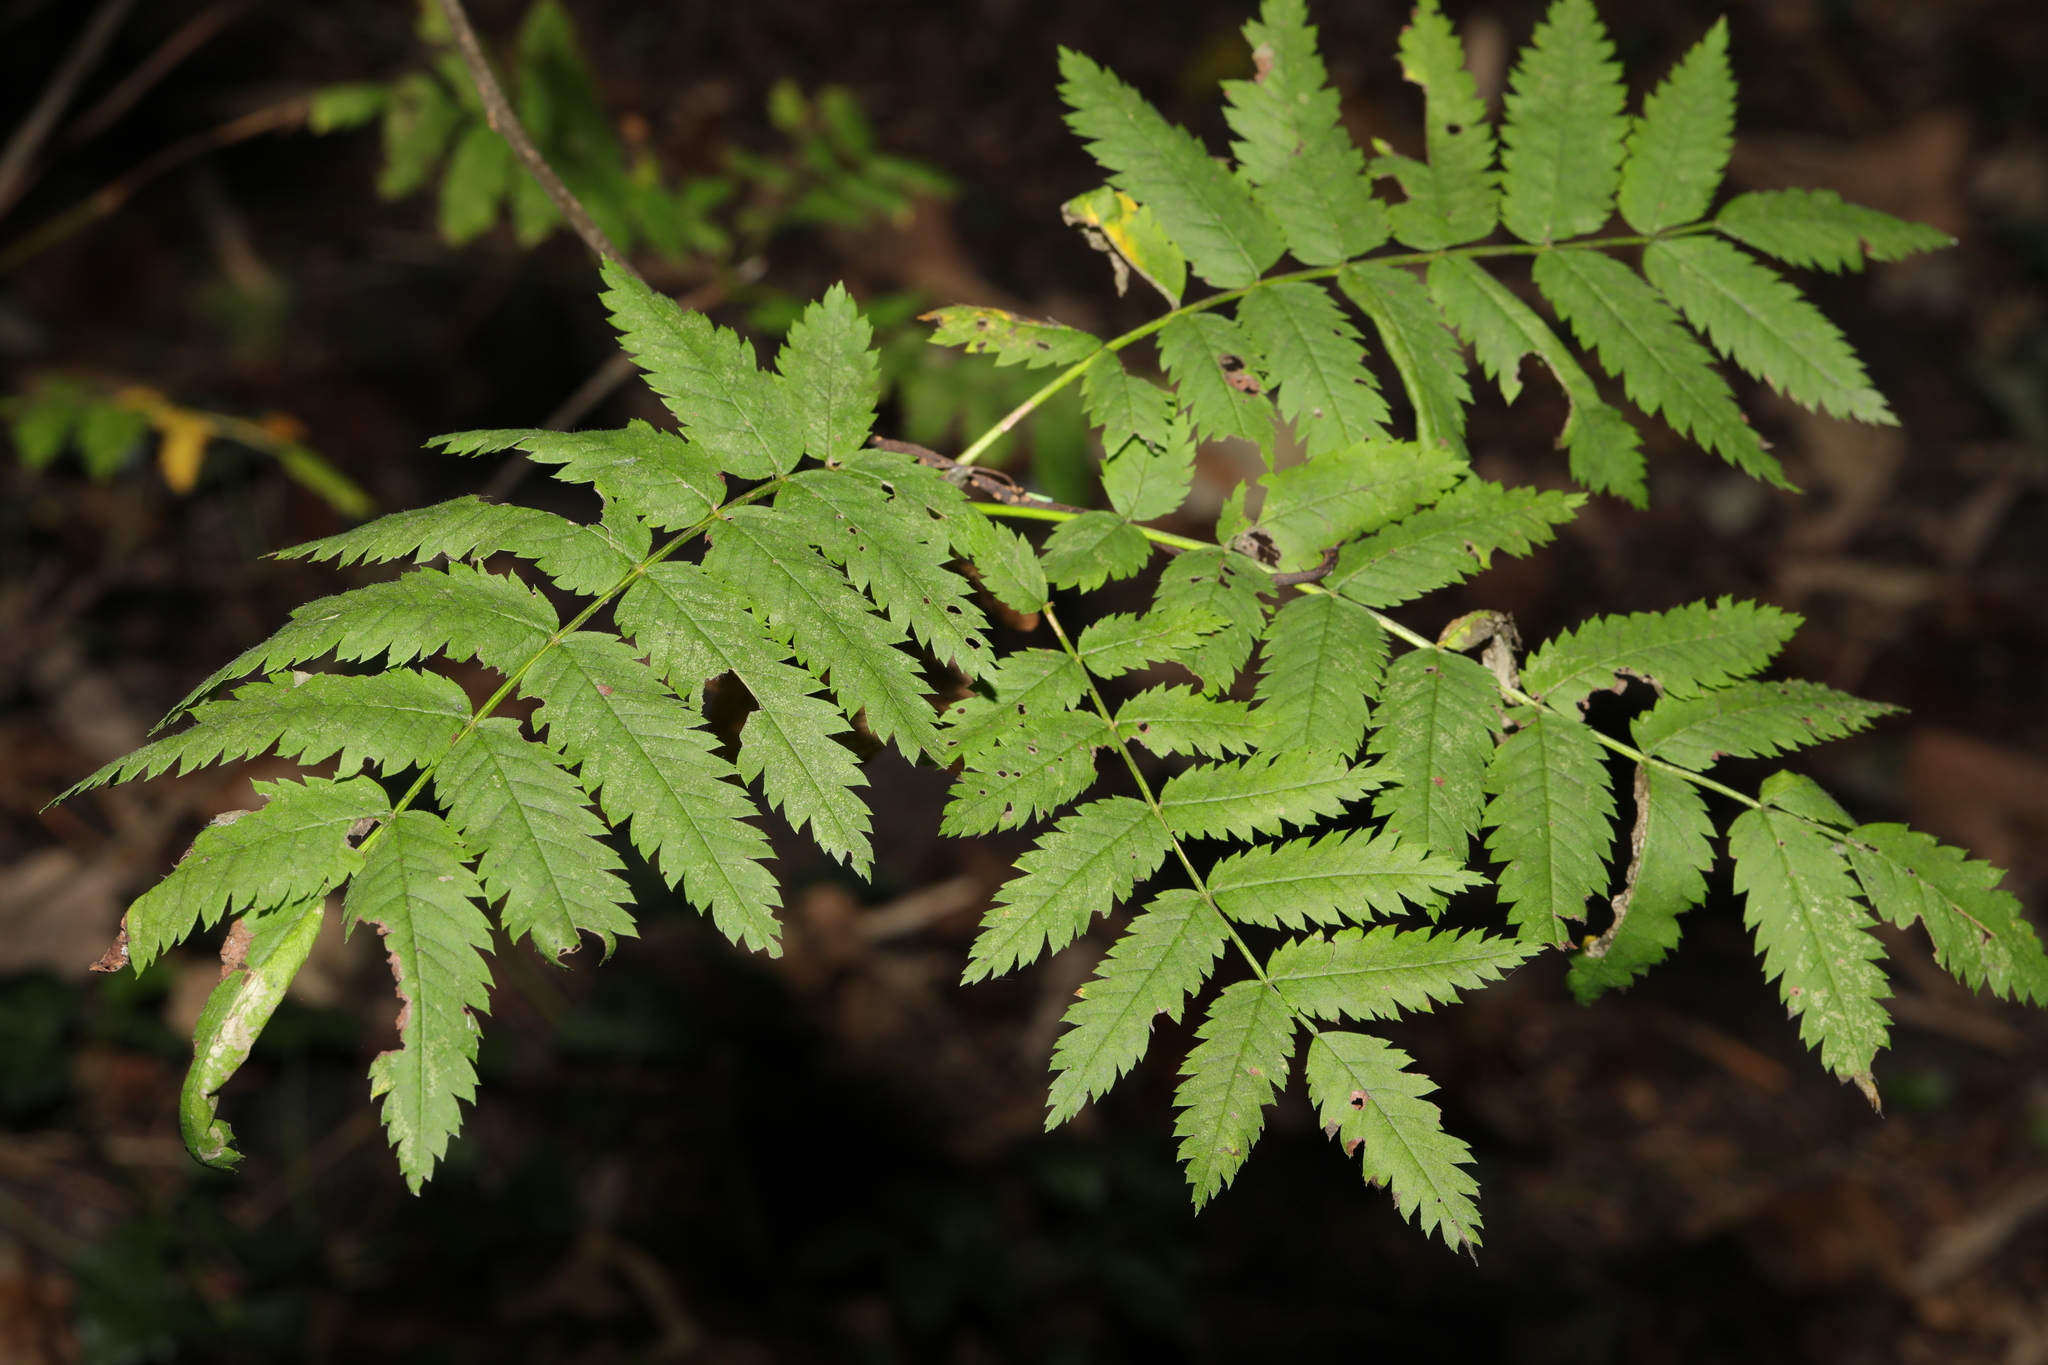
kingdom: Plantae
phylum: Tracheophyta
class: Magnoliopsida
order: Rosales
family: Rosaceae
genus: Sorbus
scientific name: Sorbus aucuparia
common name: Rowan
